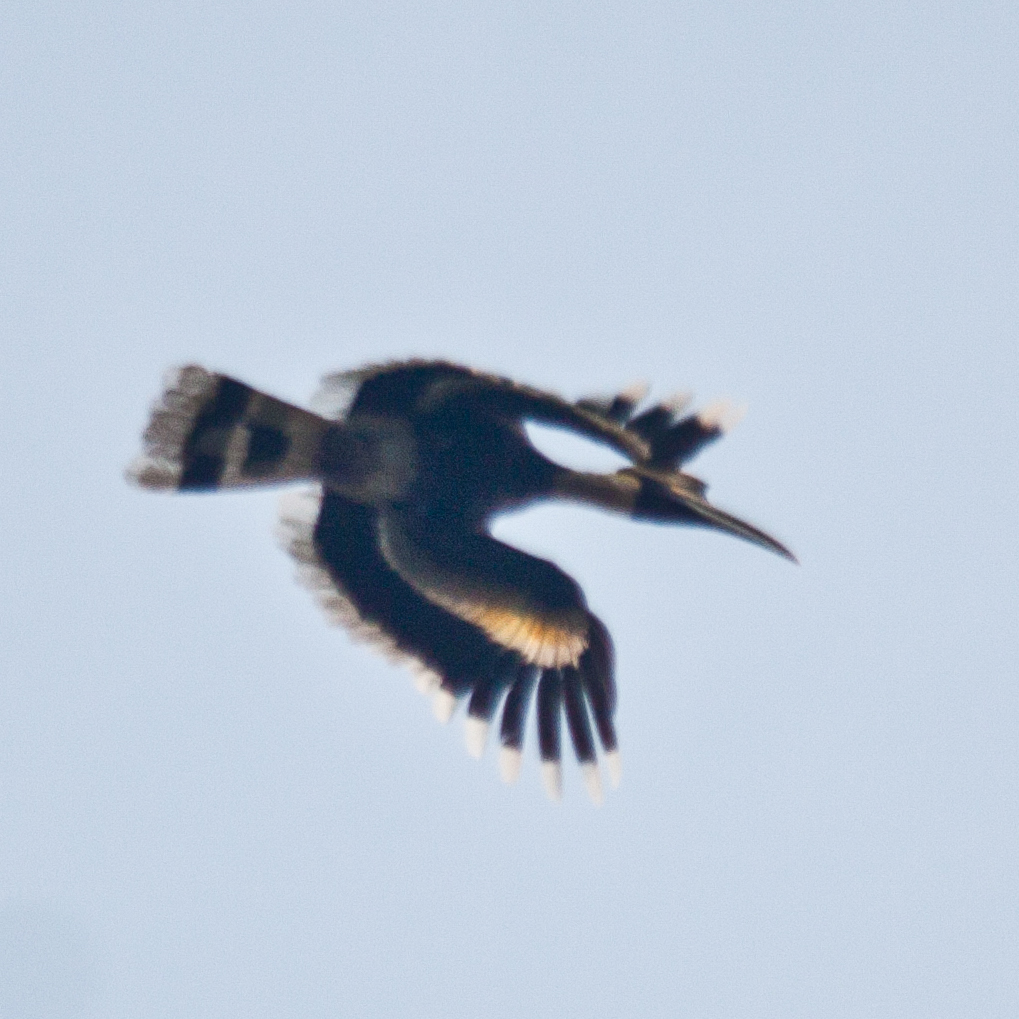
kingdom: Animalia
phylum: Chordata
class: Aves
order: Bucerotiformes
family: Bucerotidae
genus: Buceros
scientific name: Buceros bicornis
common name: Great hornbill
